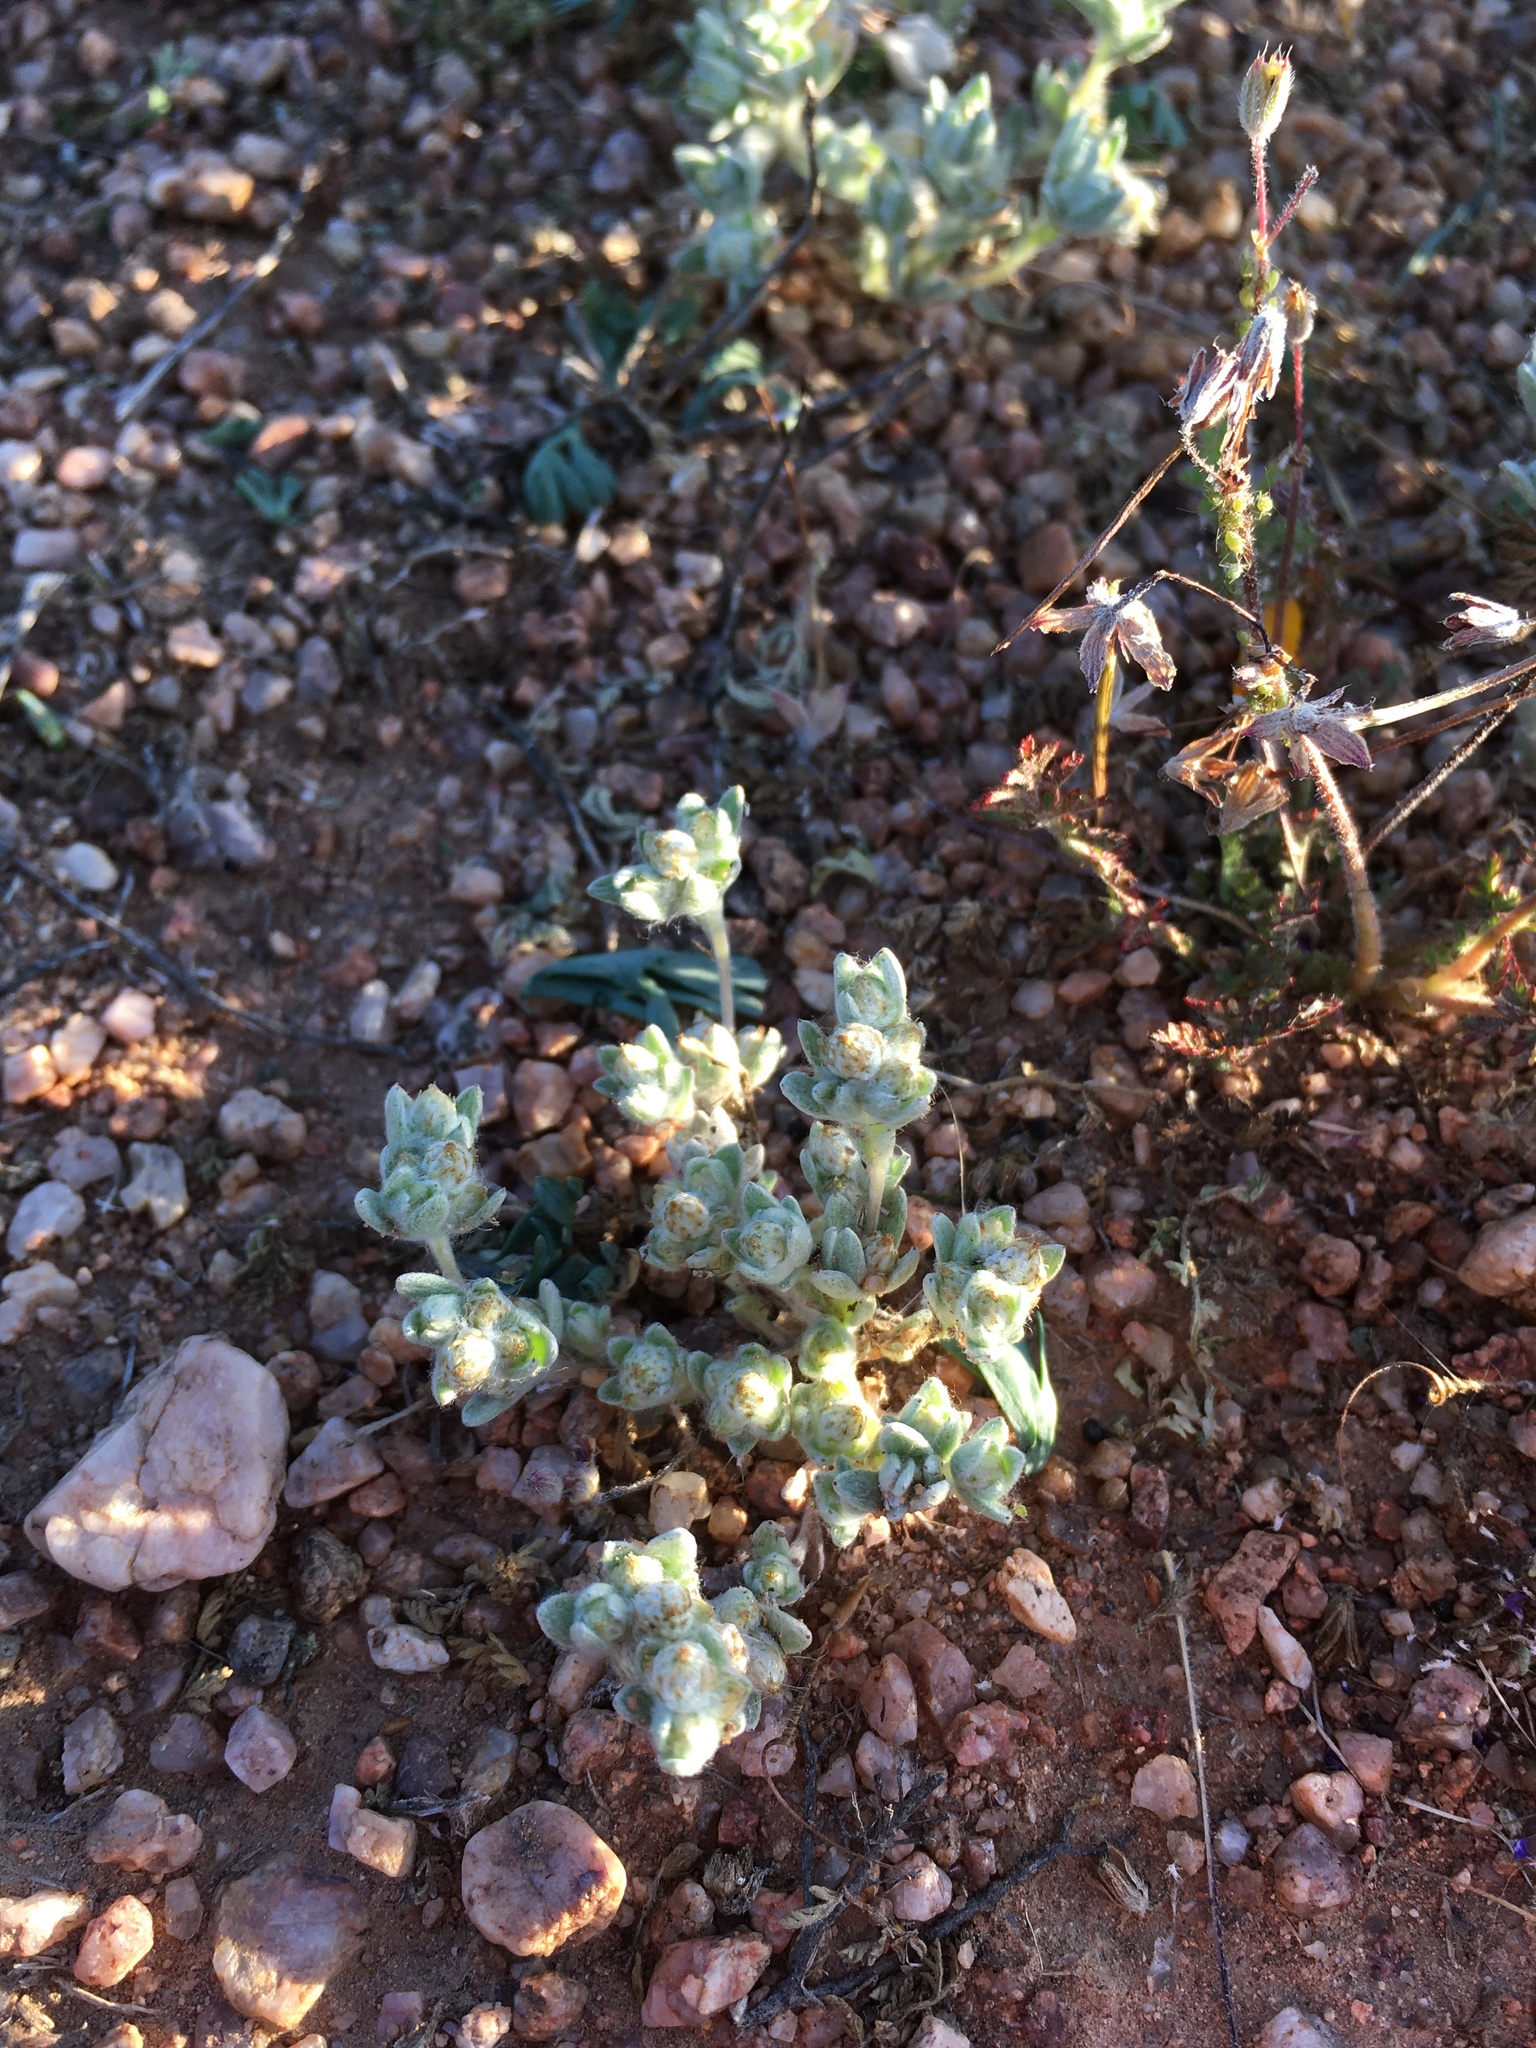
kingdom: Plantae
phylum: Tracheophyta
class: Magnoliopsida
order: Asterales
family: Asteraceae
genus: Stylocline
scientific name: Stylocline sonorensis
